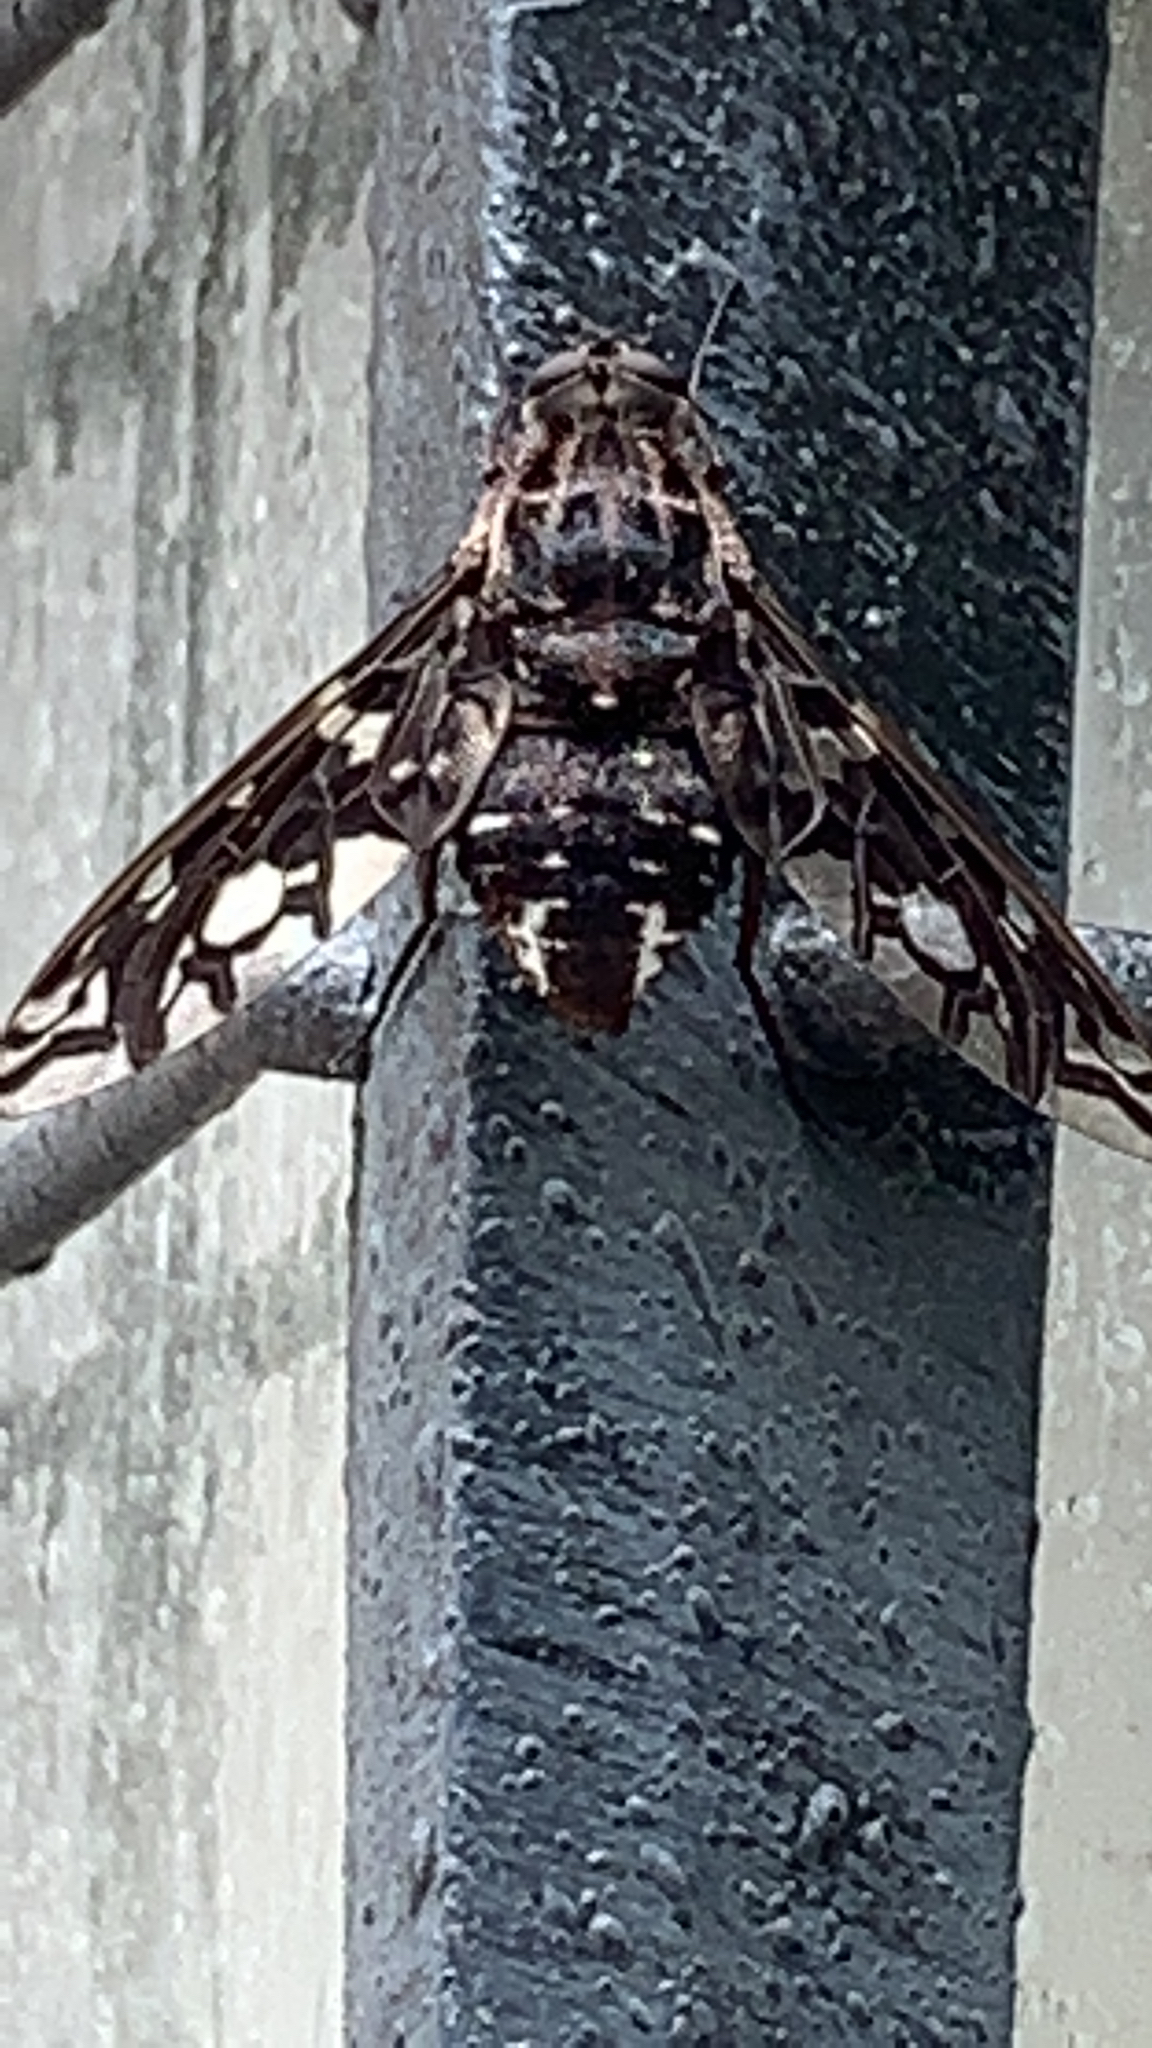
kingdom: Animalia
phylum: Arthropoda
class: Insecta
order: Diptera
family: Bombyliidae
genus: Xenox
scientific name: Xenox tigrinus
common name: Tiger bee fly
